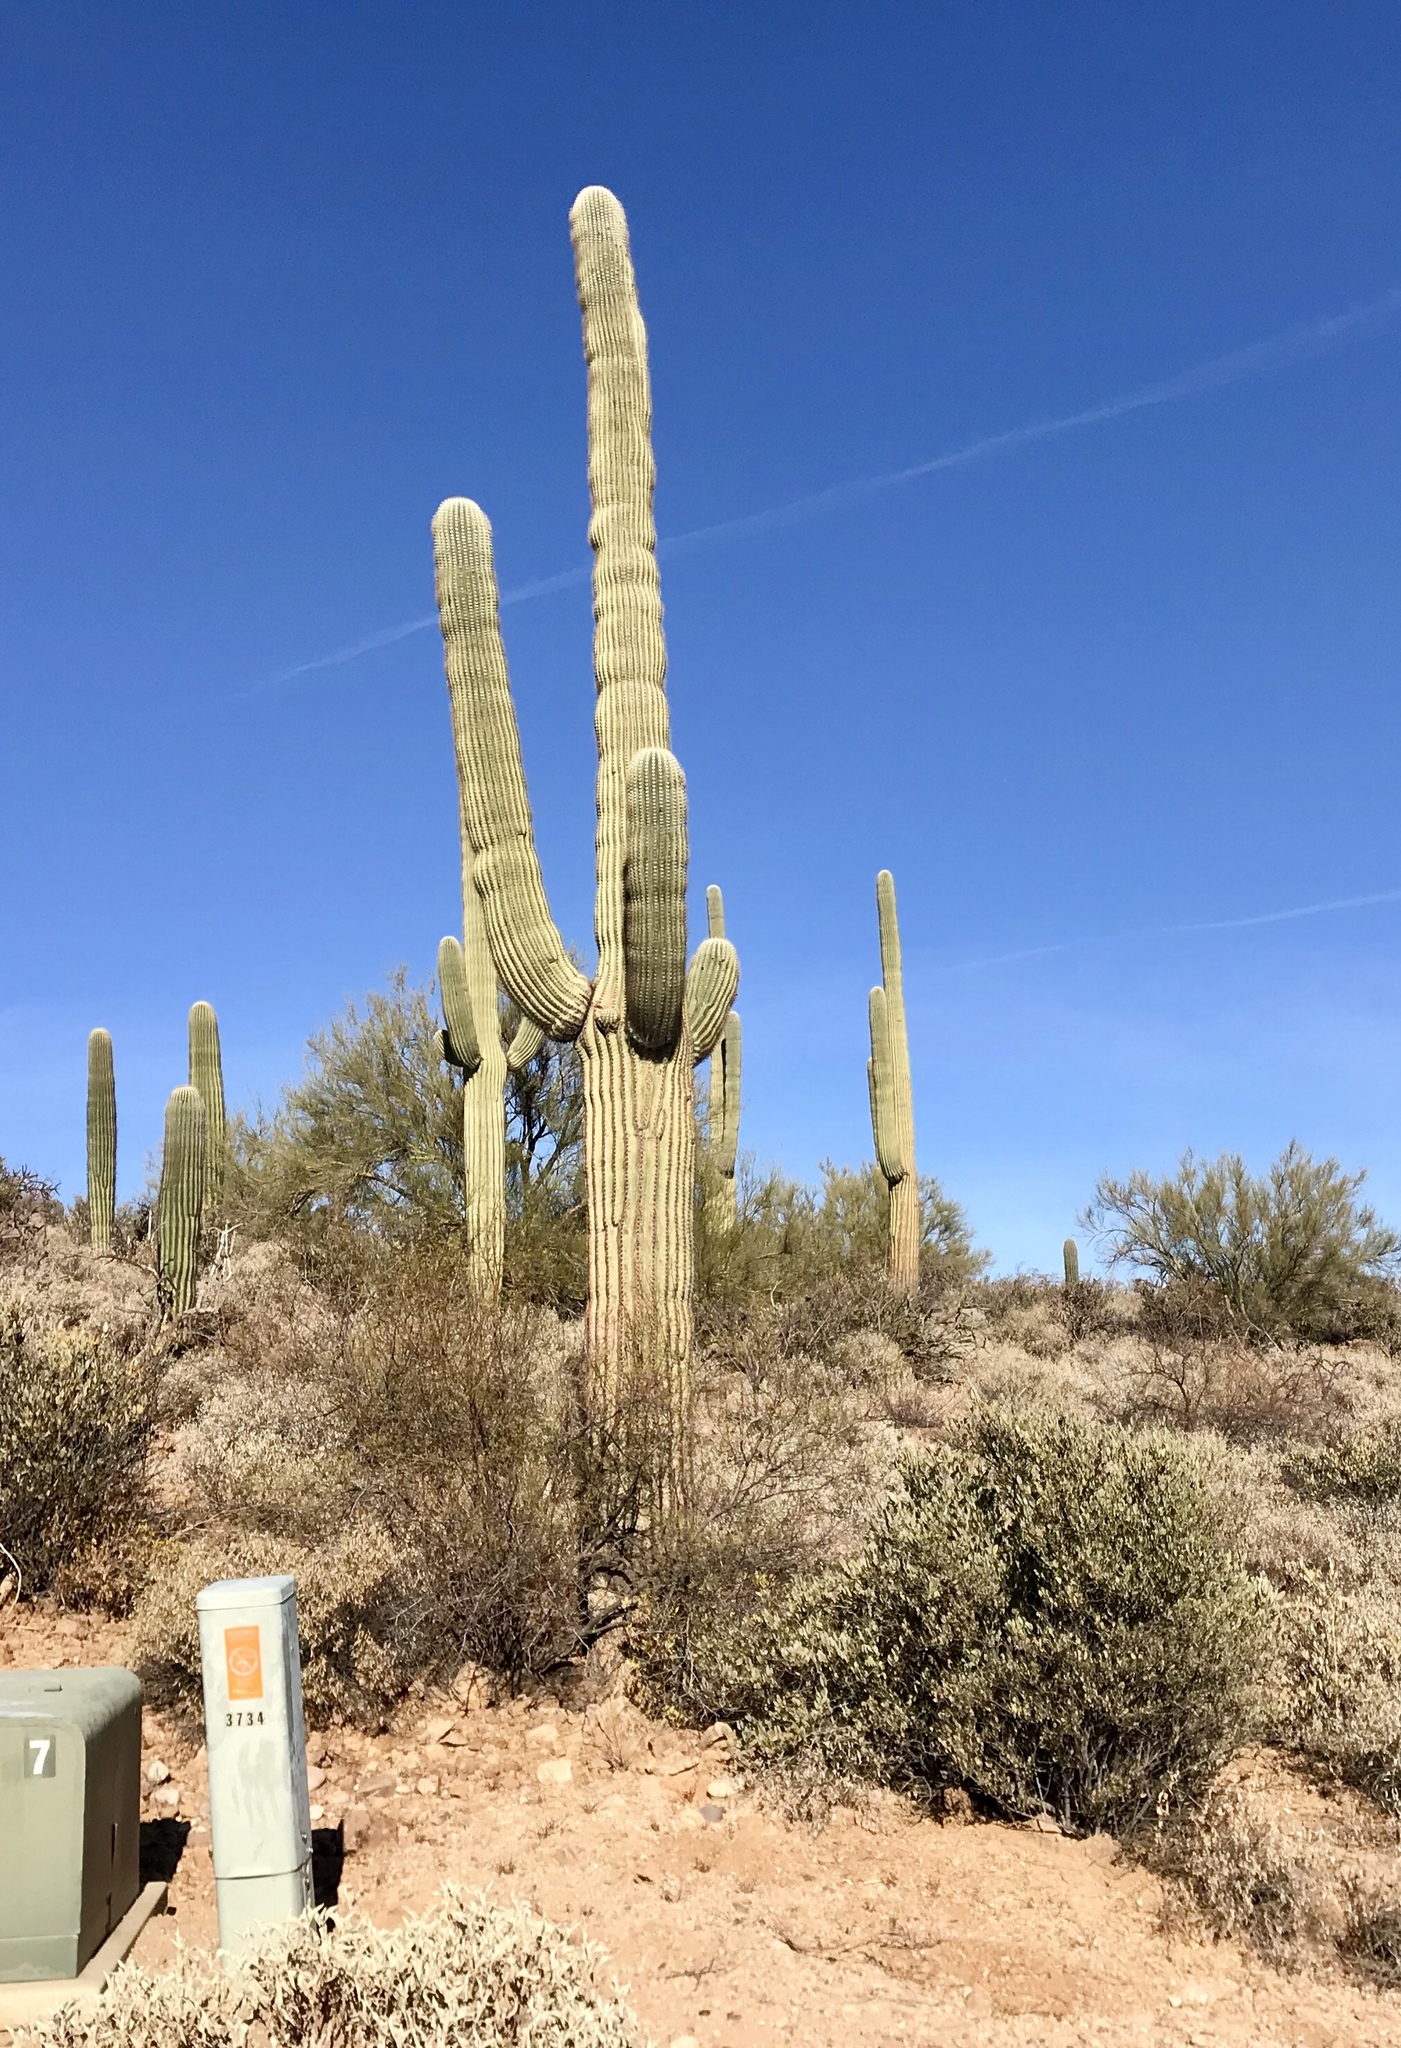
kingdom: Plantae
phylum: Tracheophyta
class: Magnoliopsida
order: Caryophyllales
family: Cactaceae
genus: Carnegiea
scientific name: Carnegiea gigantea
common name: Saguaro
